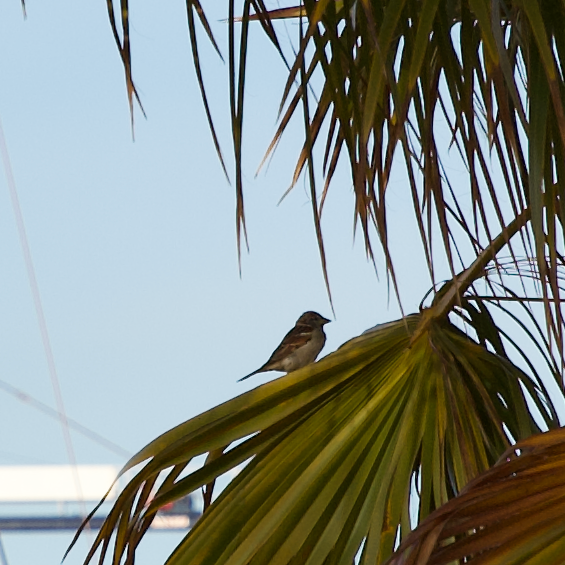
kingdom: Animalia
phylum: Chordata
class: Aves
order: Passeriformes
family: Passeridae
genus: Passer
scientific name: Passer domesticus
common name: House sparrow
